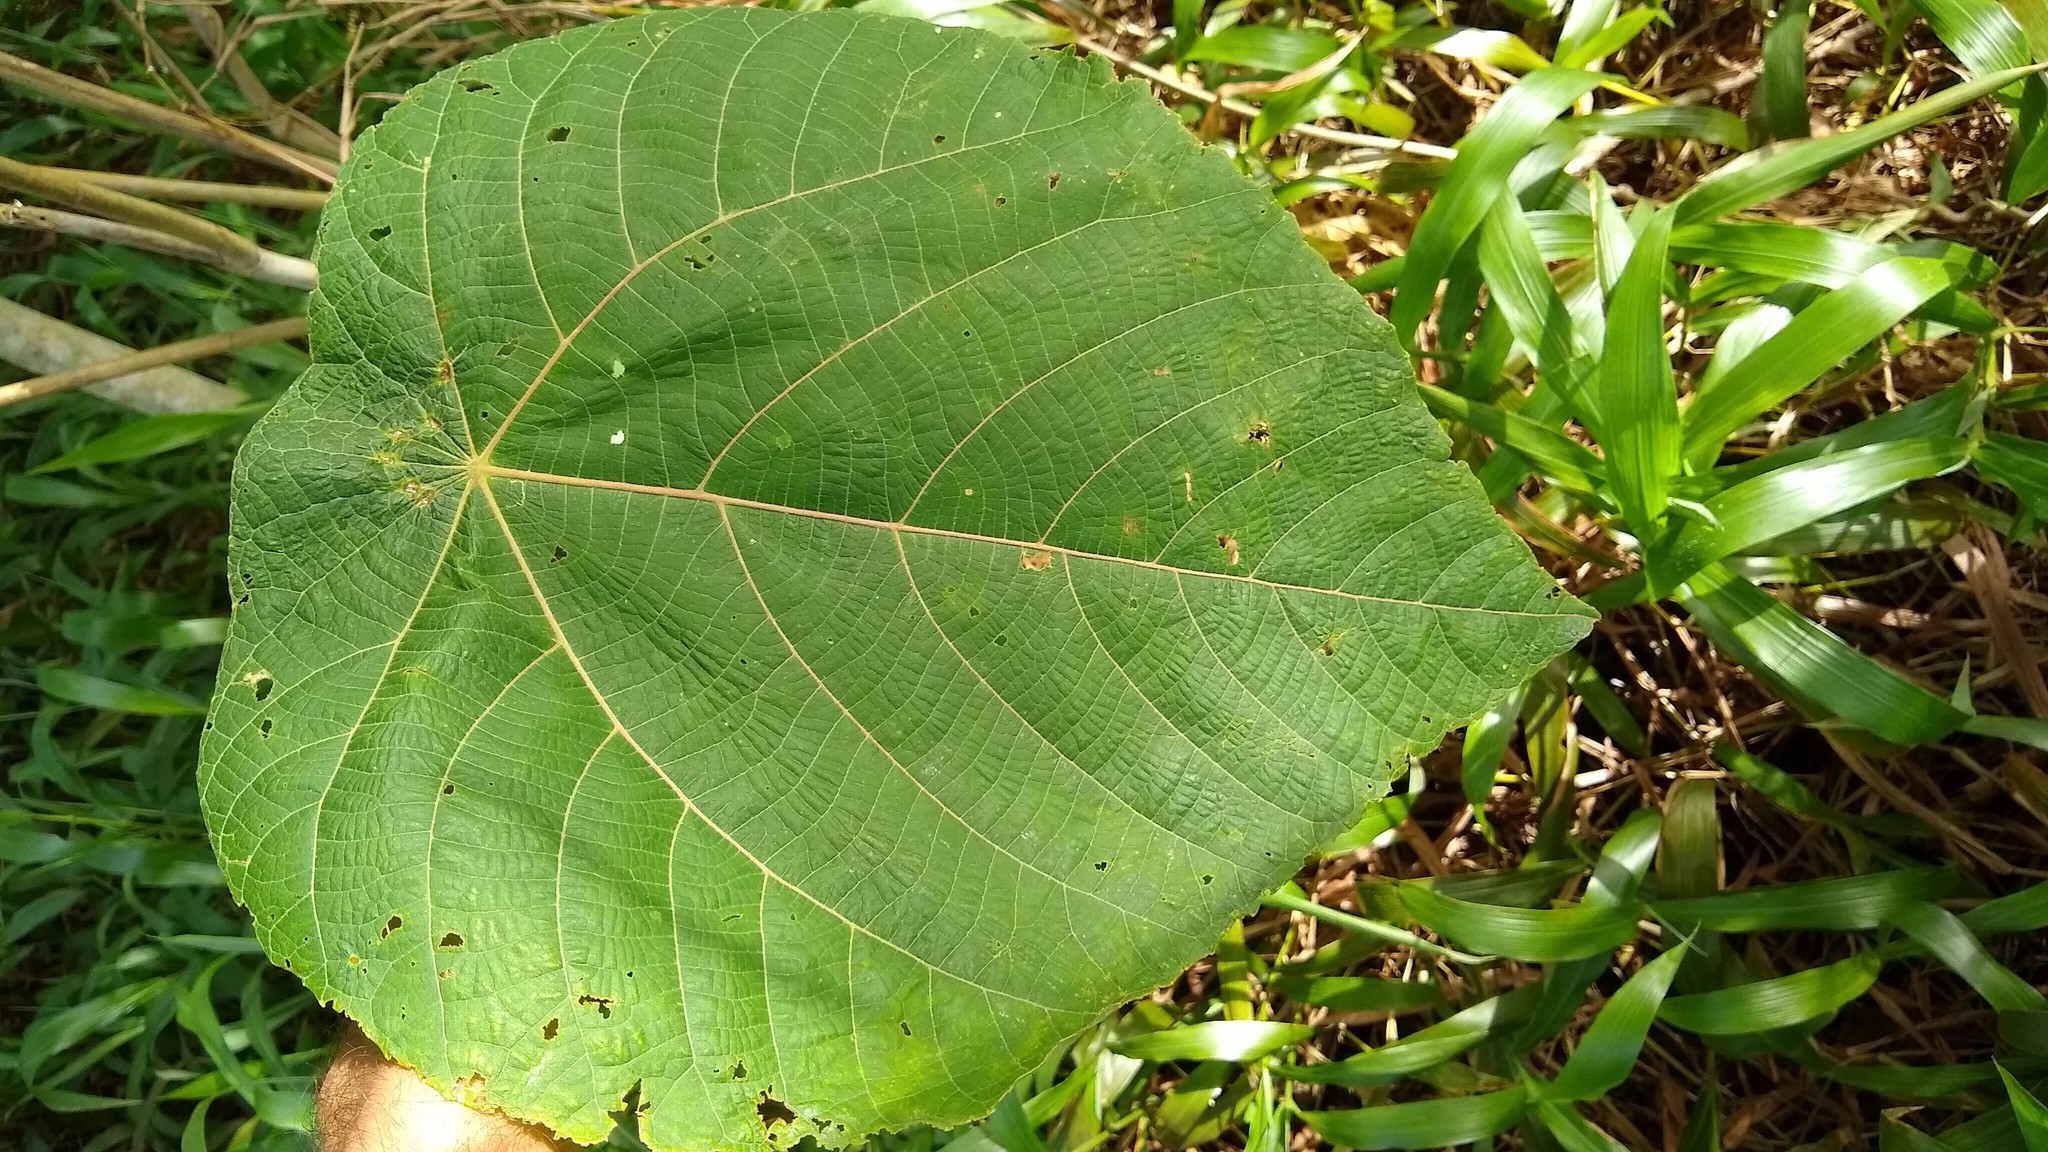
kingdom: Plantae
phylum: Tracheophyta
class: Magnoliopsida
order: Malpighiales
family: Euphorbiaceae
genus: Macaranga
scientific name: Macaranga carolinensis
